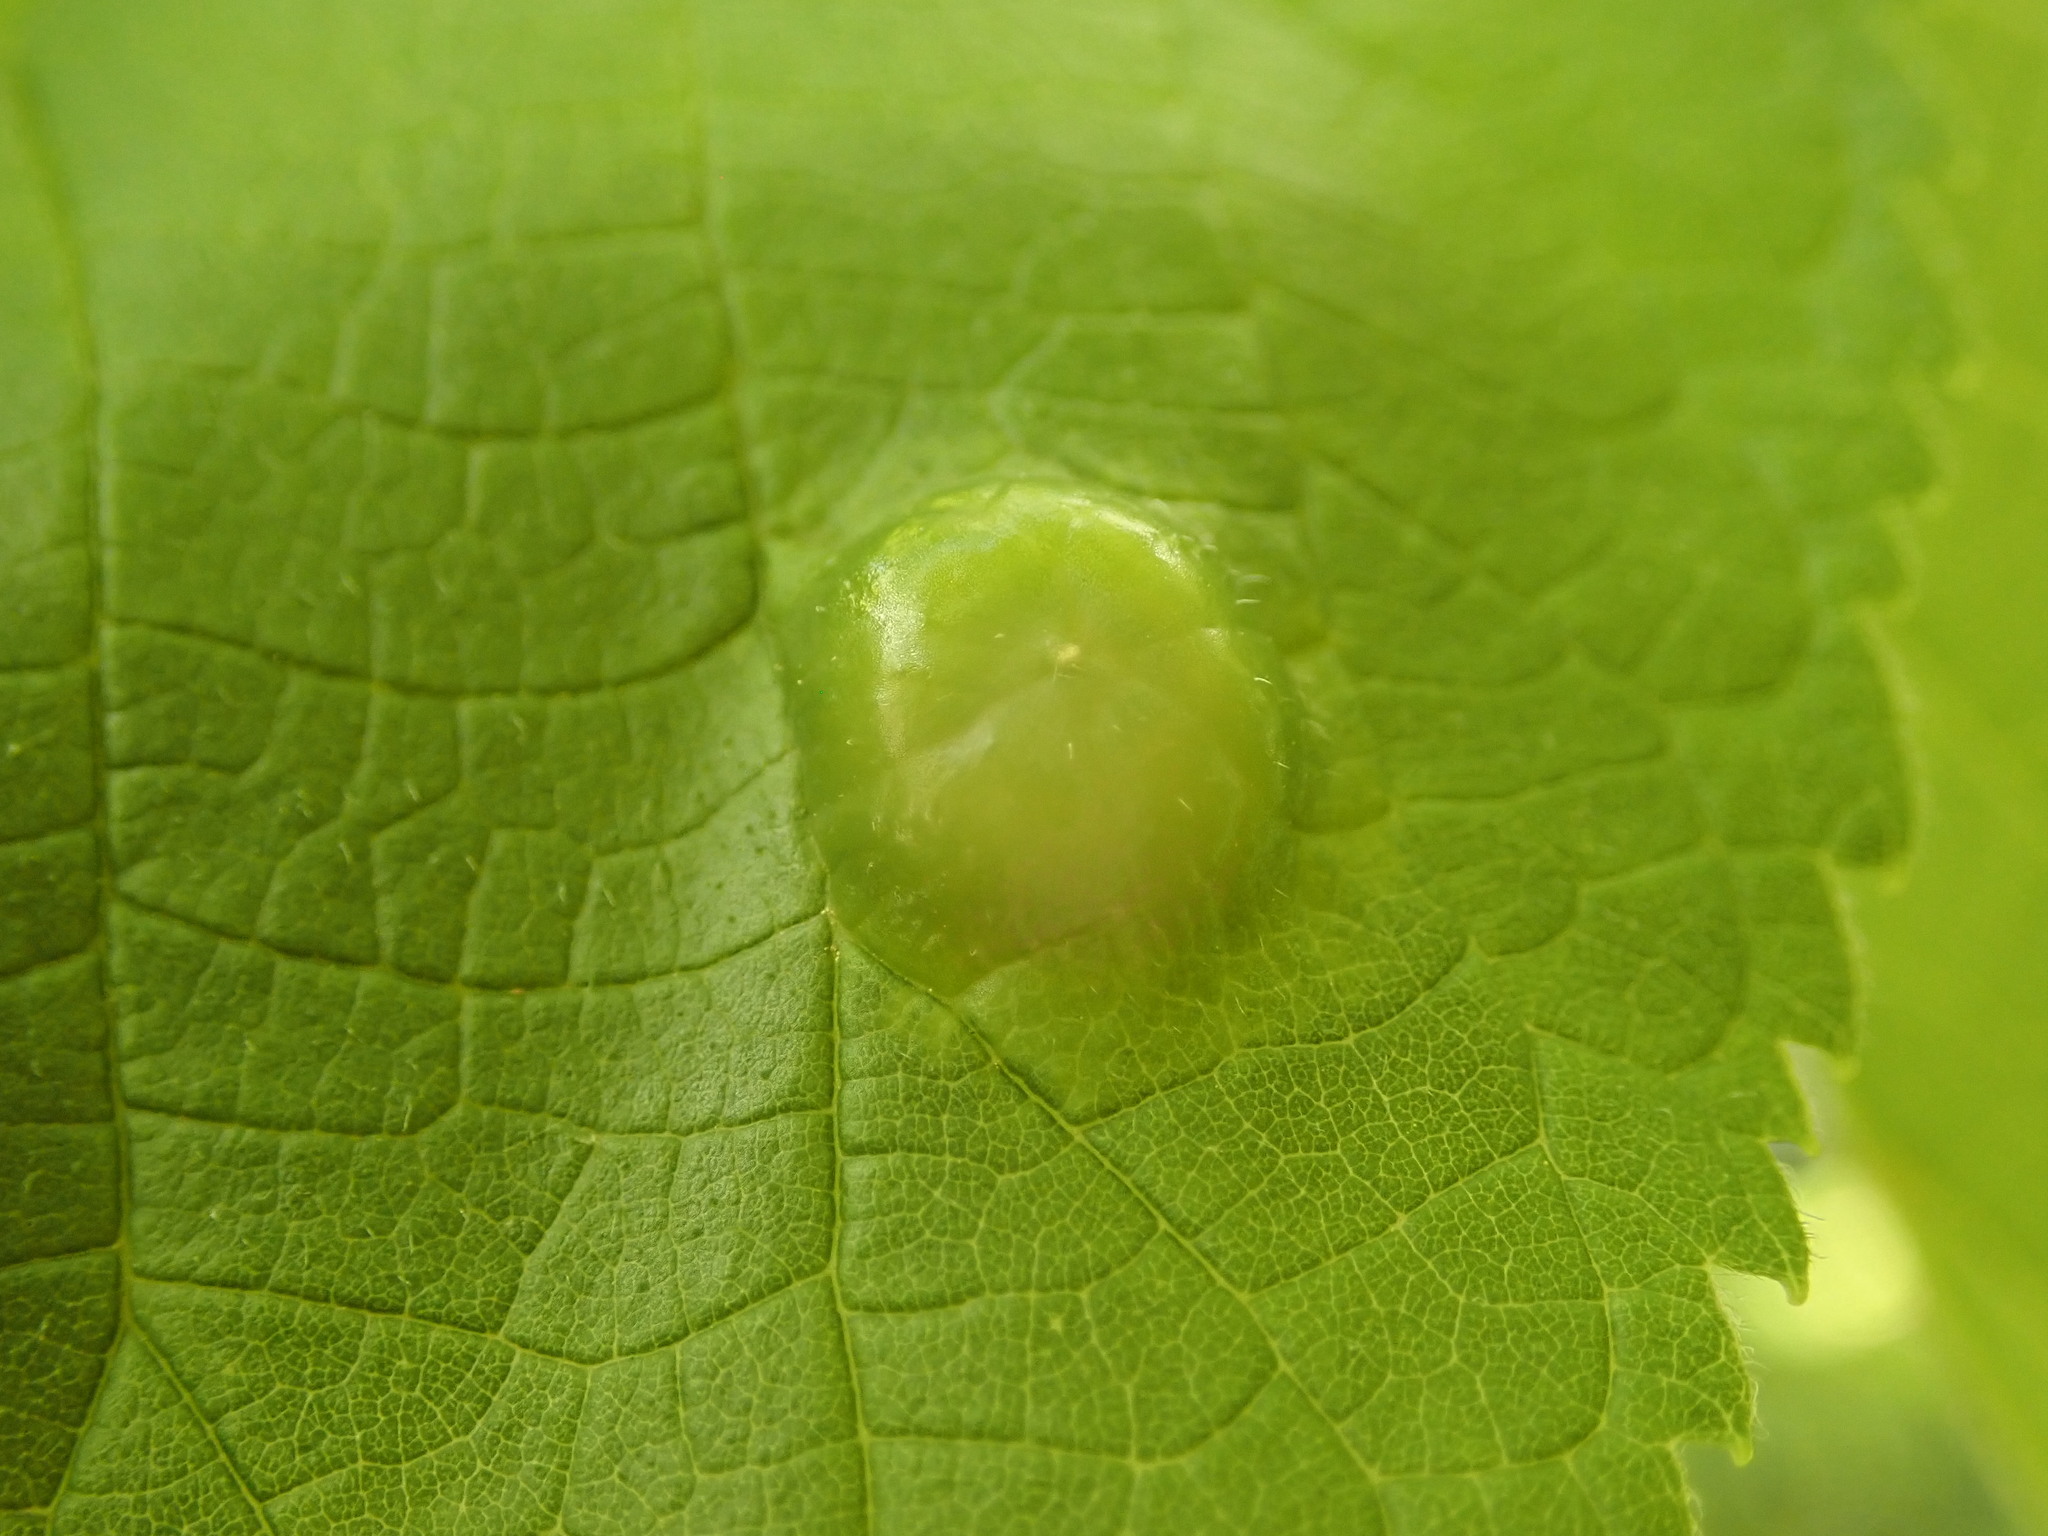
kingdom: Animalia
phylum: Arthropoda
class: Insecta
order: Hemiptera
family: Aphalaridae
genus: Pachypsylla
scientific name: Pachypsylla celtidisumbilicus
